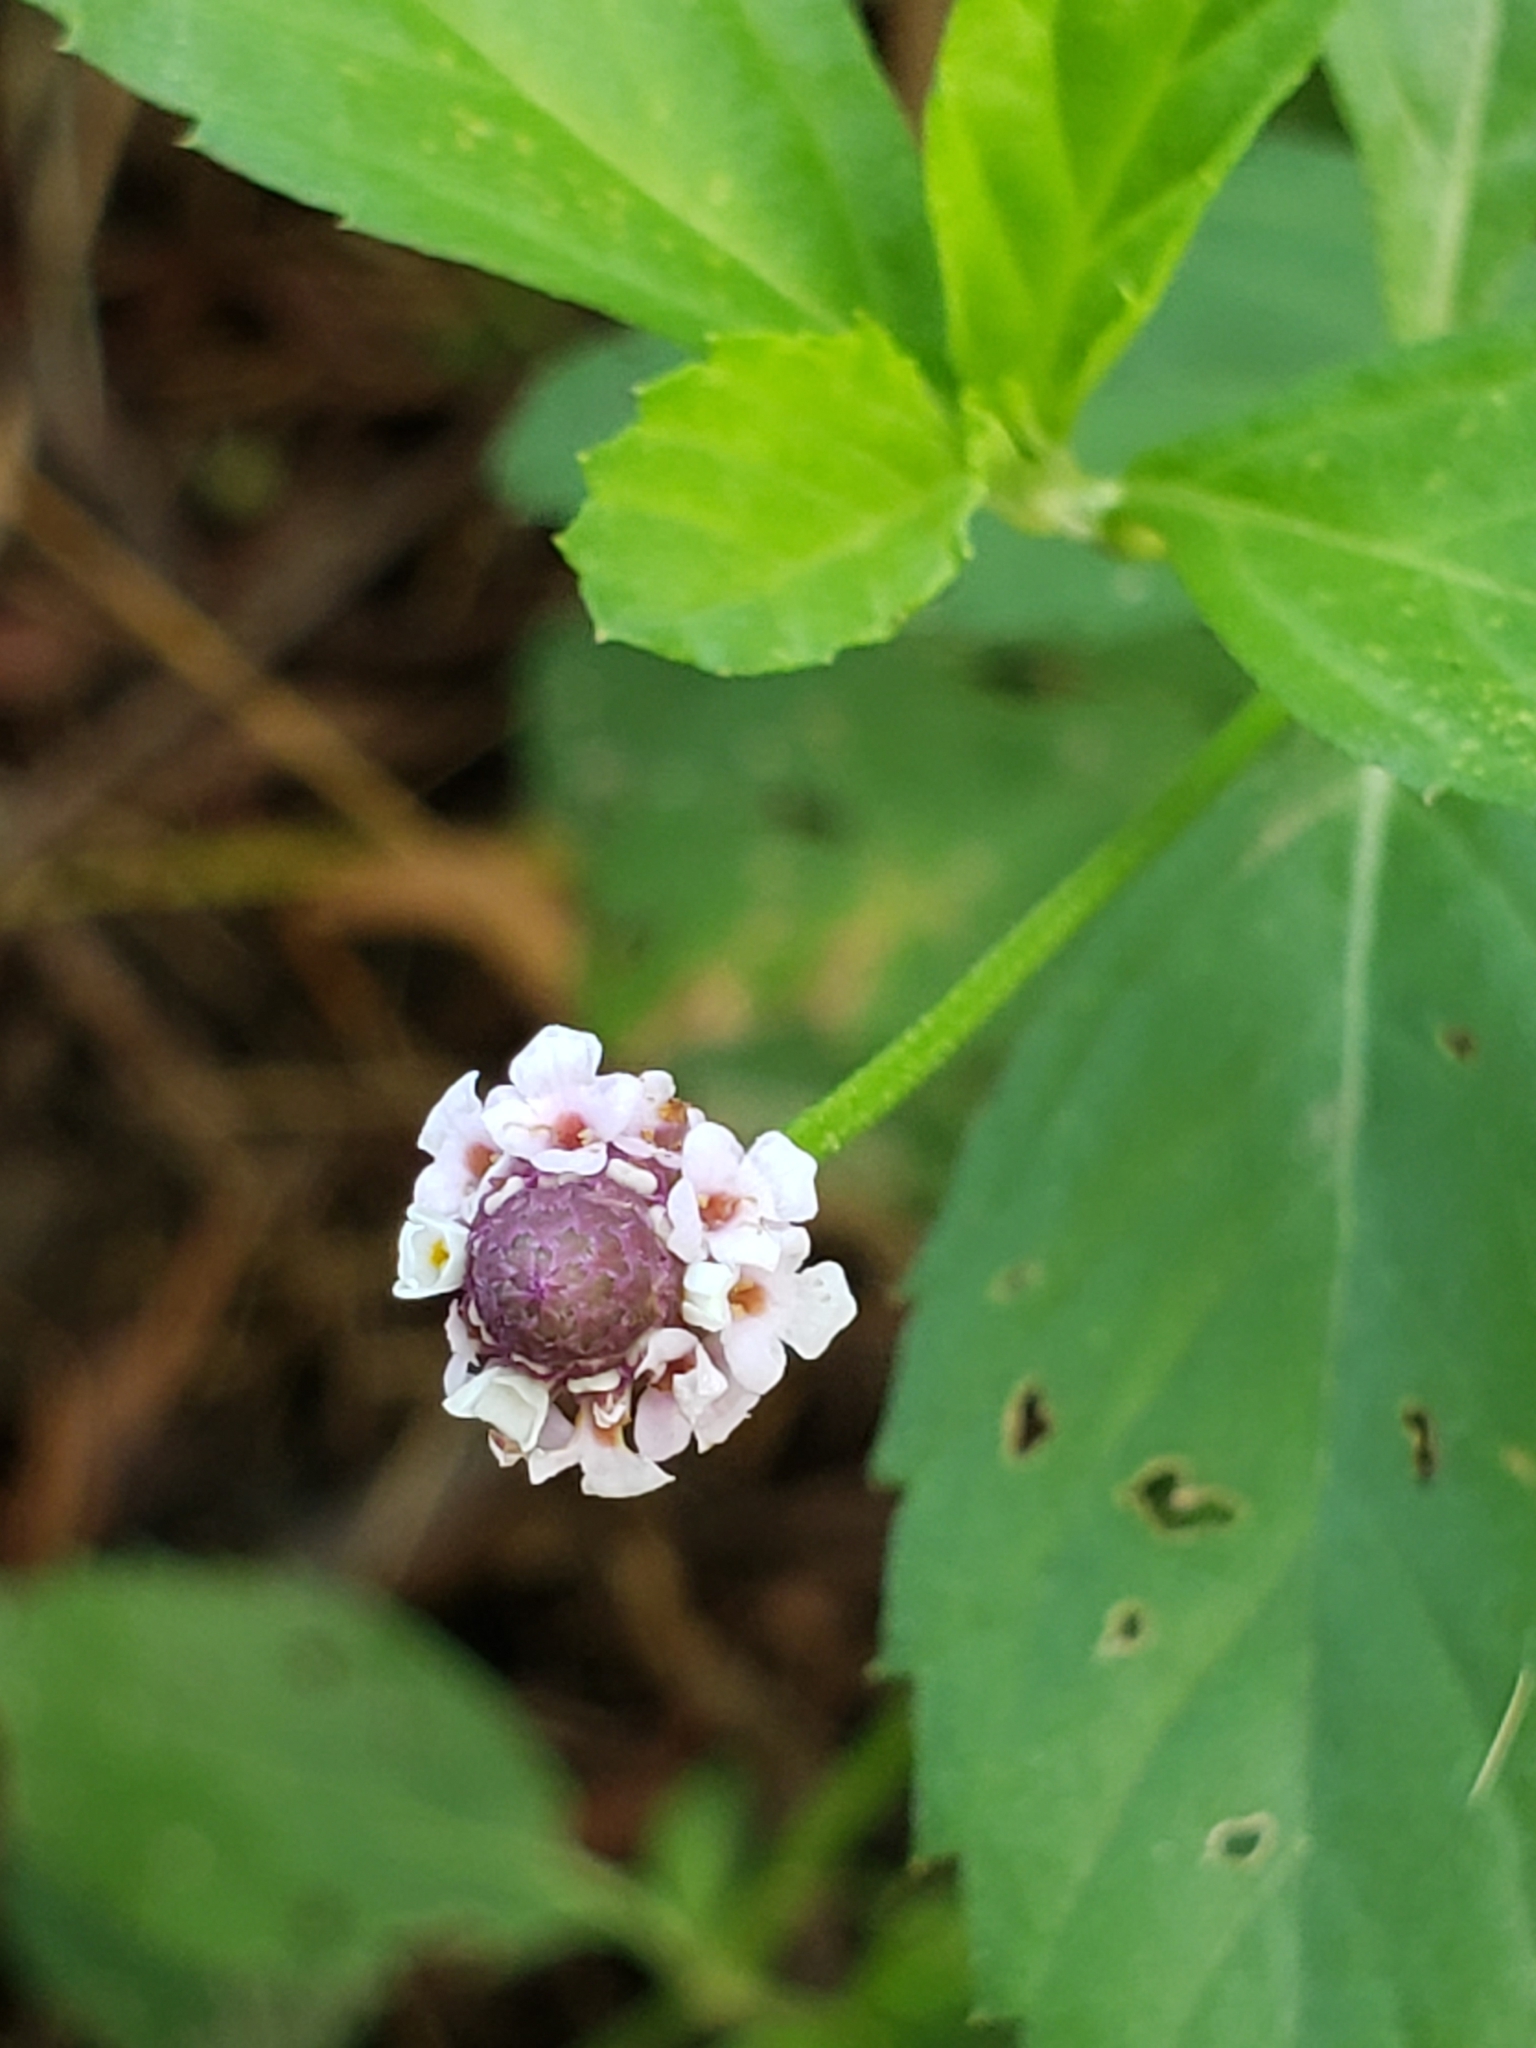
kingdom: Plantae
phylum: Tracheophyta
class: Magnoliopsida
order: Lamiales
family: Verbenaceae
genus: Phyla
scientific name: Phyla lanceolata
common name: Northern fogfruit
